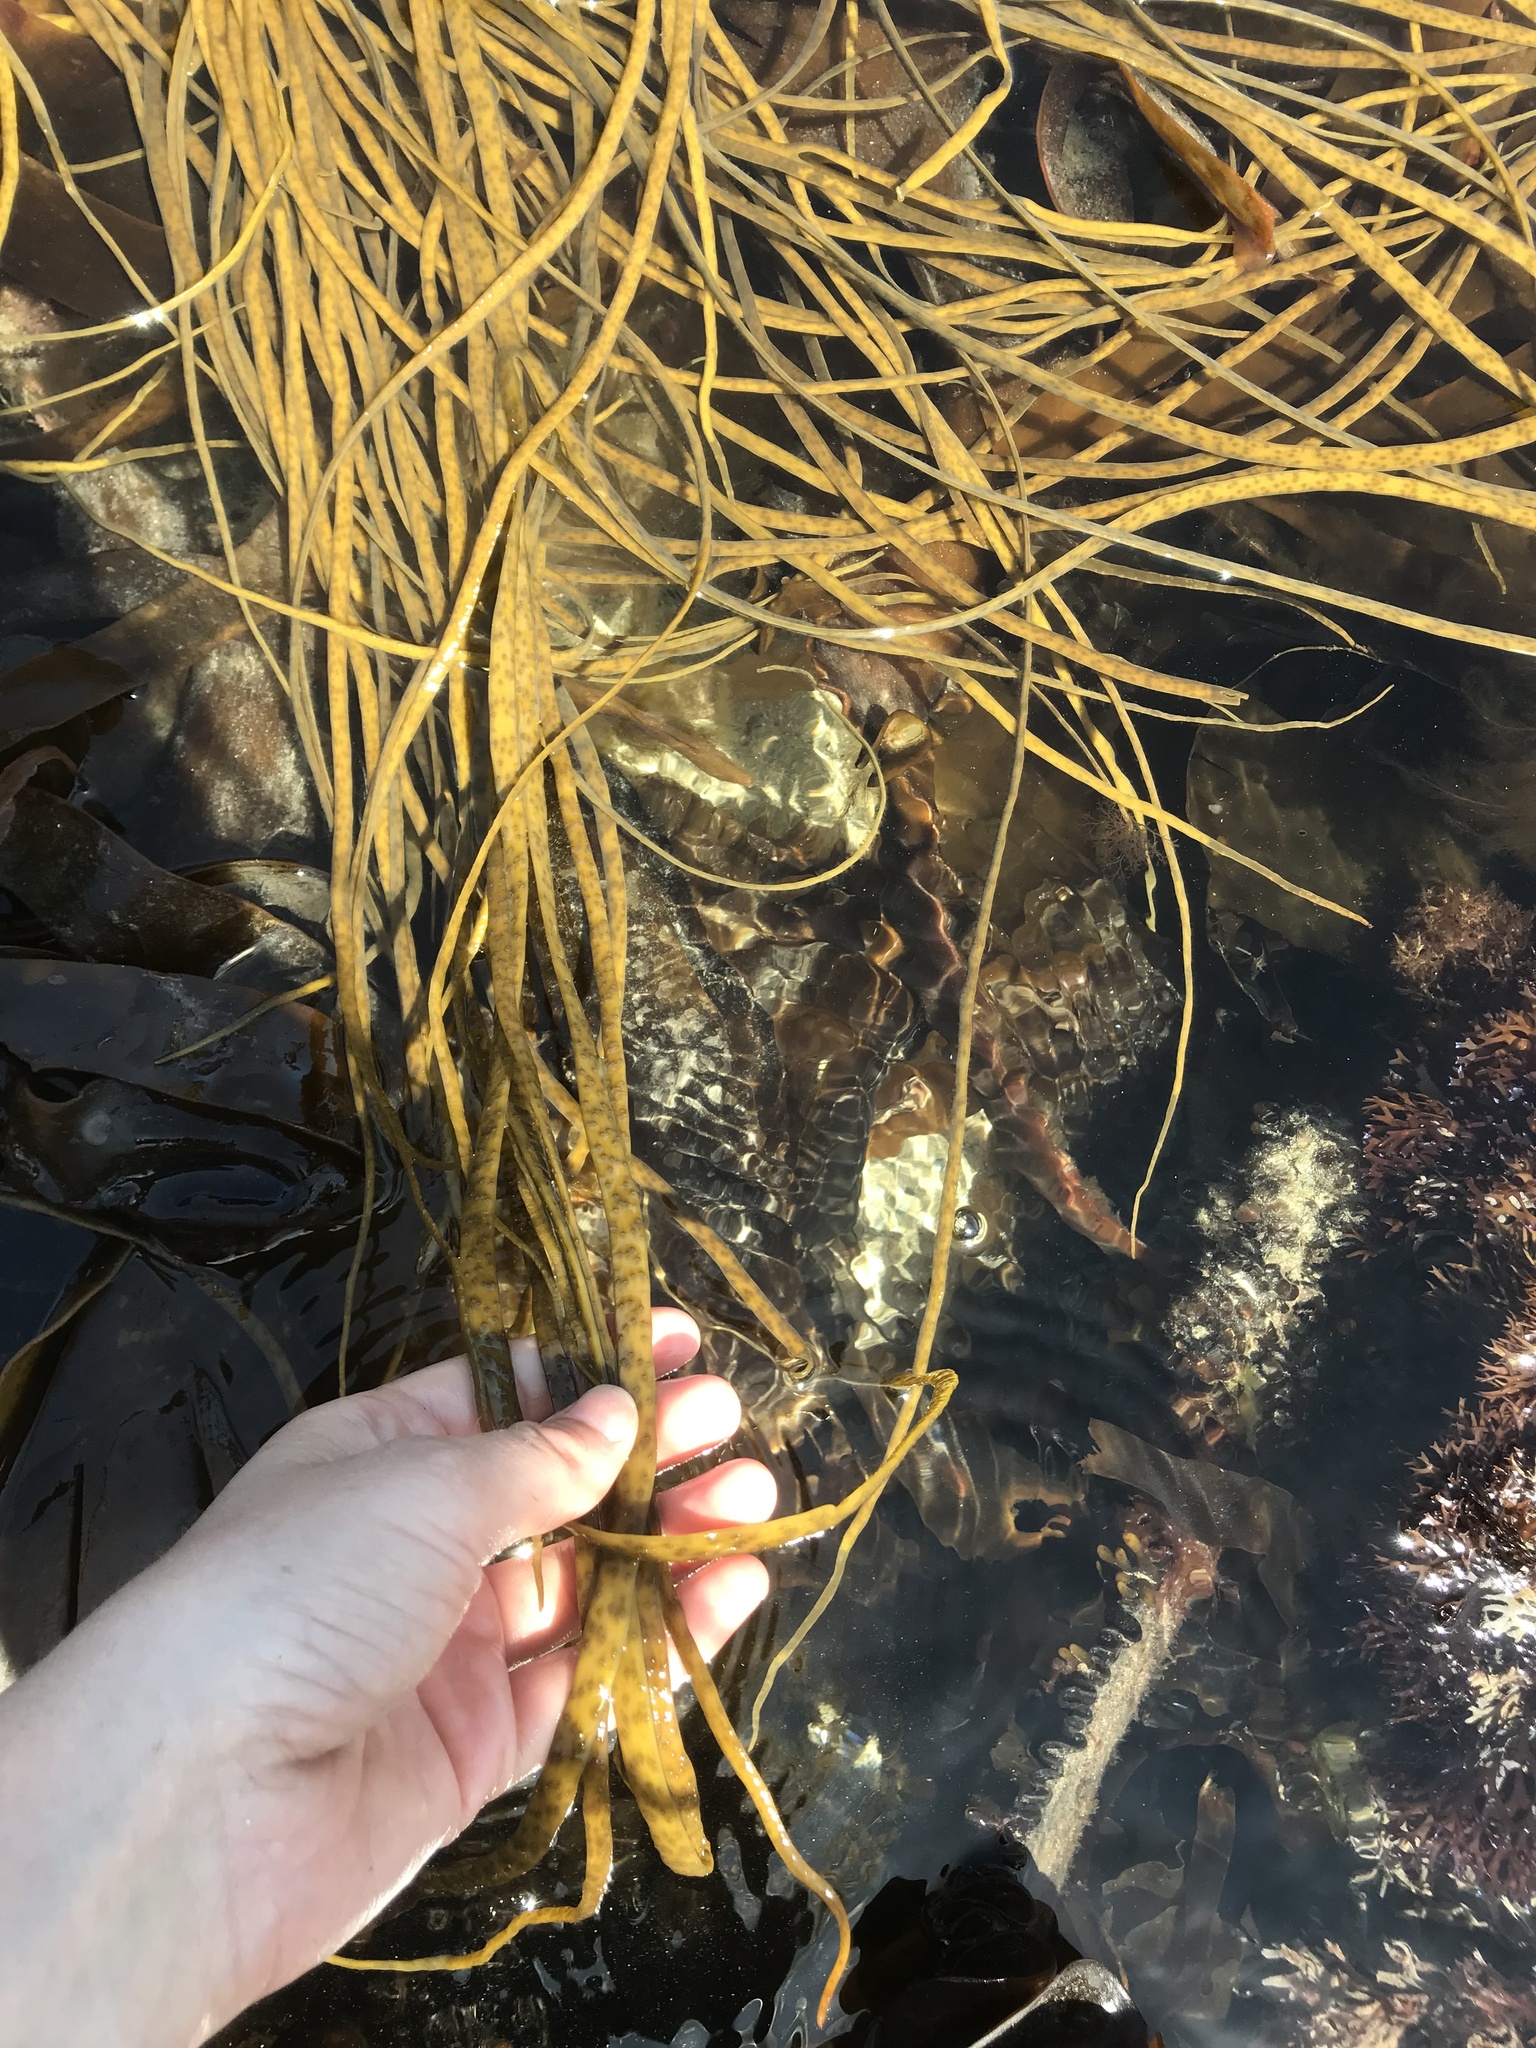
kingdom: Chromista
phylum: Ochrophyta
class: Phaeophyceae
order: Fucales
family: Himanthaliaceae
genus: Himanthalia
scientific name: Himanthalia elongata
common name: Sea-thong
